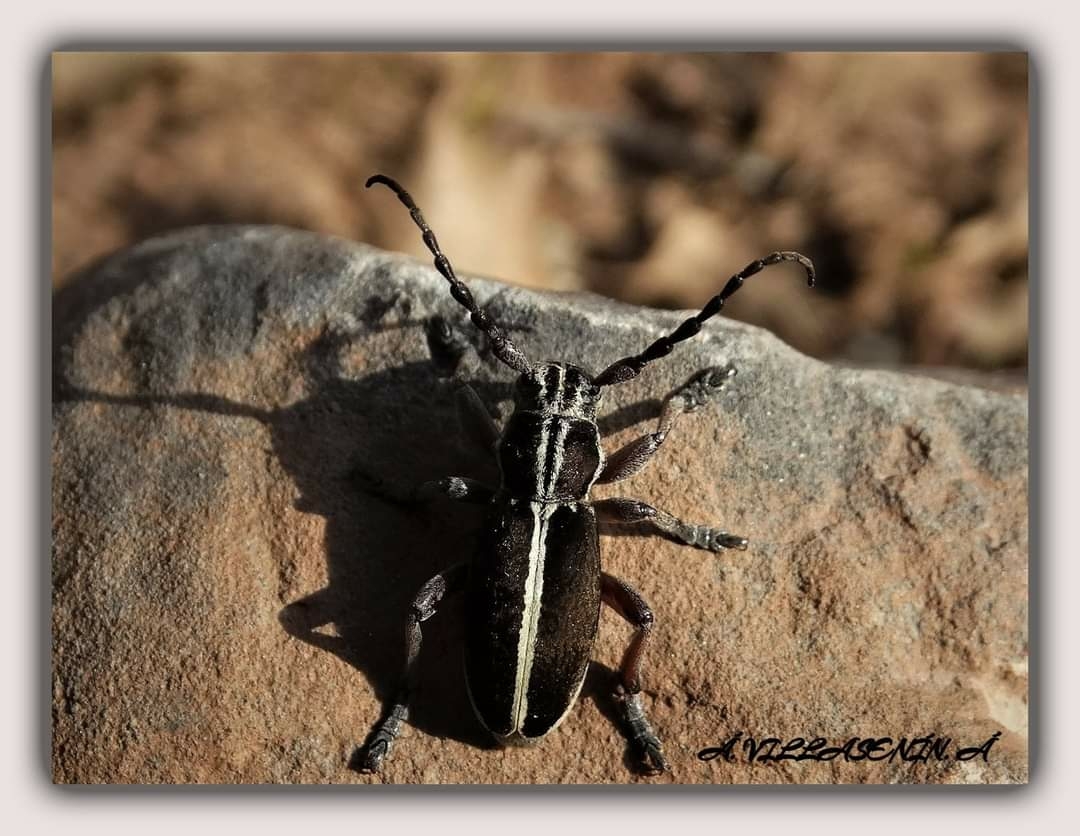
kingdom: Animalia
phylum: Arthropoda
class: Insecta
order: Coleoptera
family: Cerambycidae
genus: Iberodorcadion
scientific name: Iberodorcadion circumcinctum
